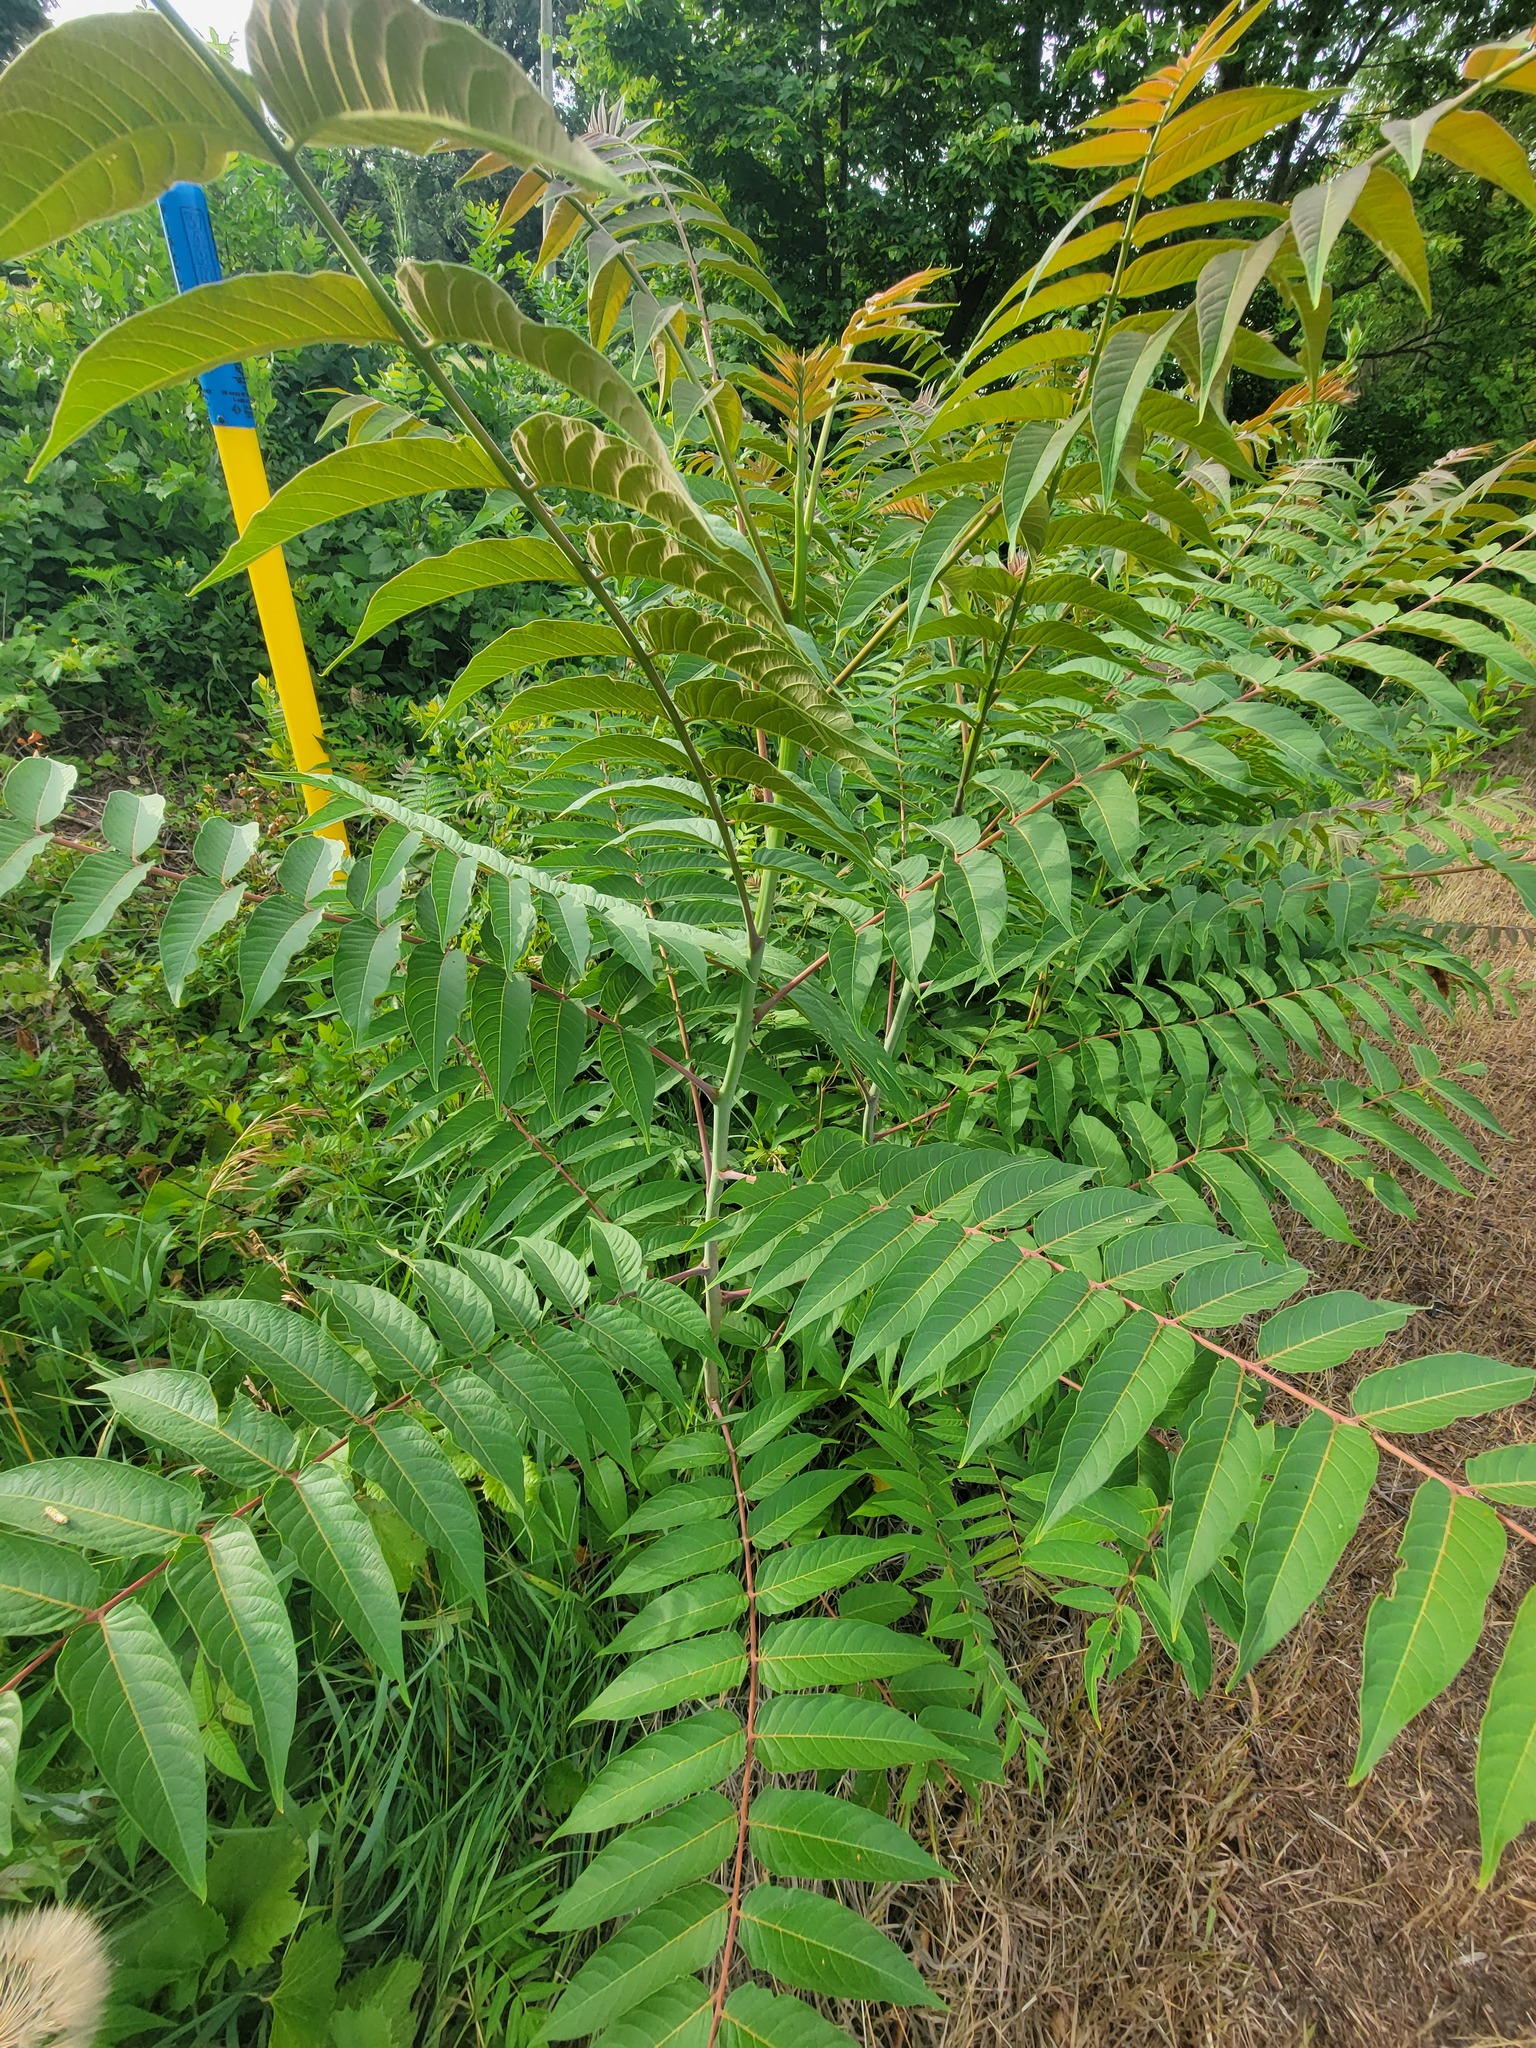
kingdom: Plantae
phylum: Tracheophyta
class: Magnoliopsida
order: Sapindales
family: Simaroubaceae
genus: Ailanthus
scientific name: Ailanthus altissima
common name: Tree-of-heaven
